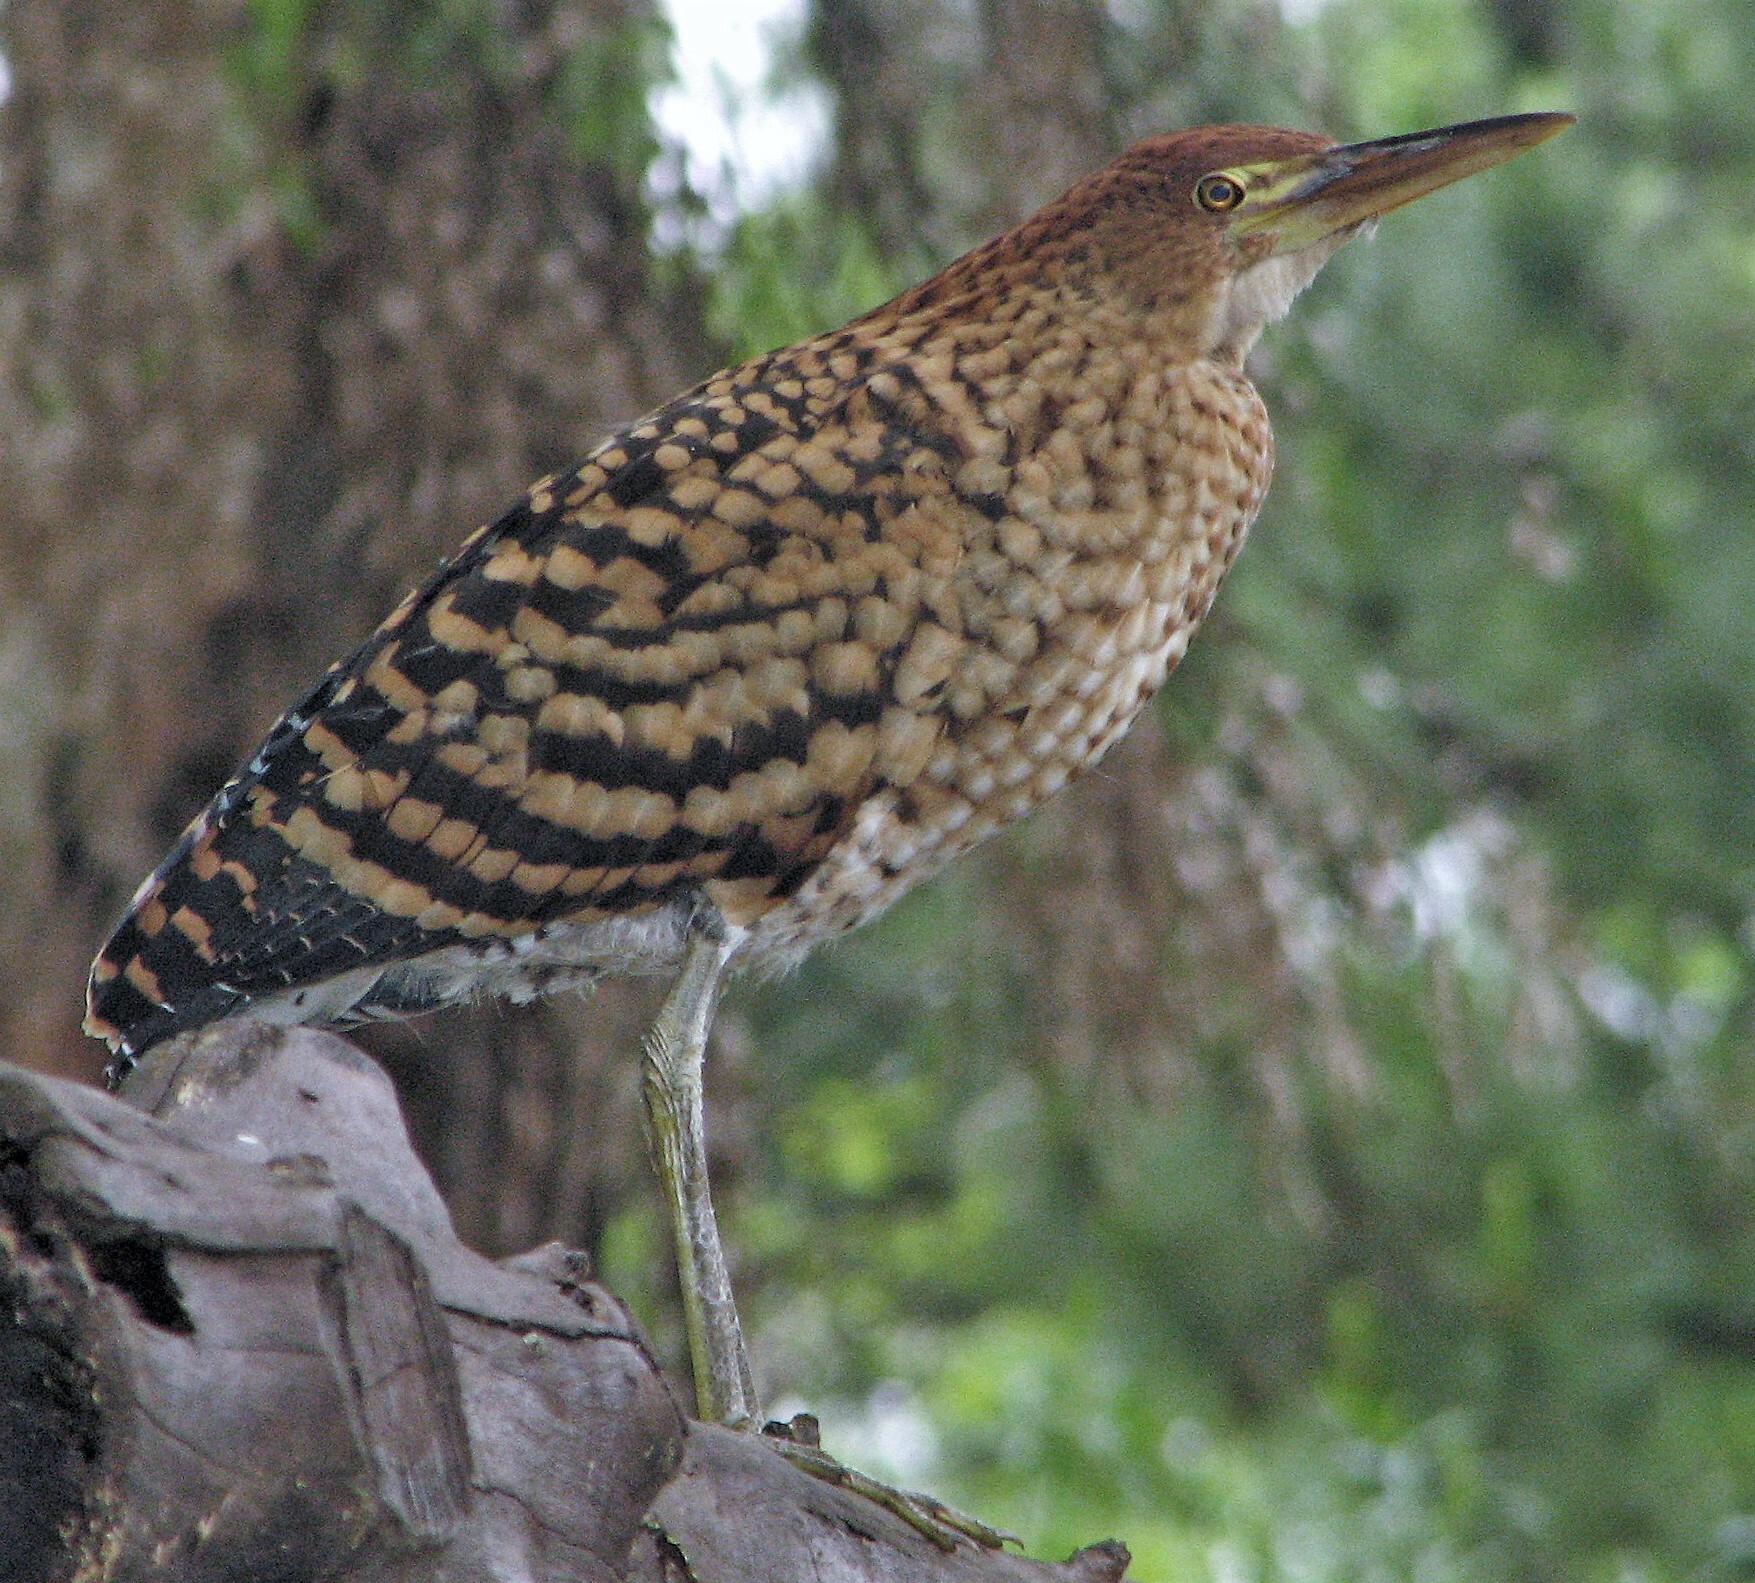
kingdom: Animalia
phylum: Chordata
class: Aves
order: Pelecaniformes
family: Ardeidae
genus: Tigrisoma
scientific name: Tigrisoma lineatum
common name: Rufescent tiger-heron
